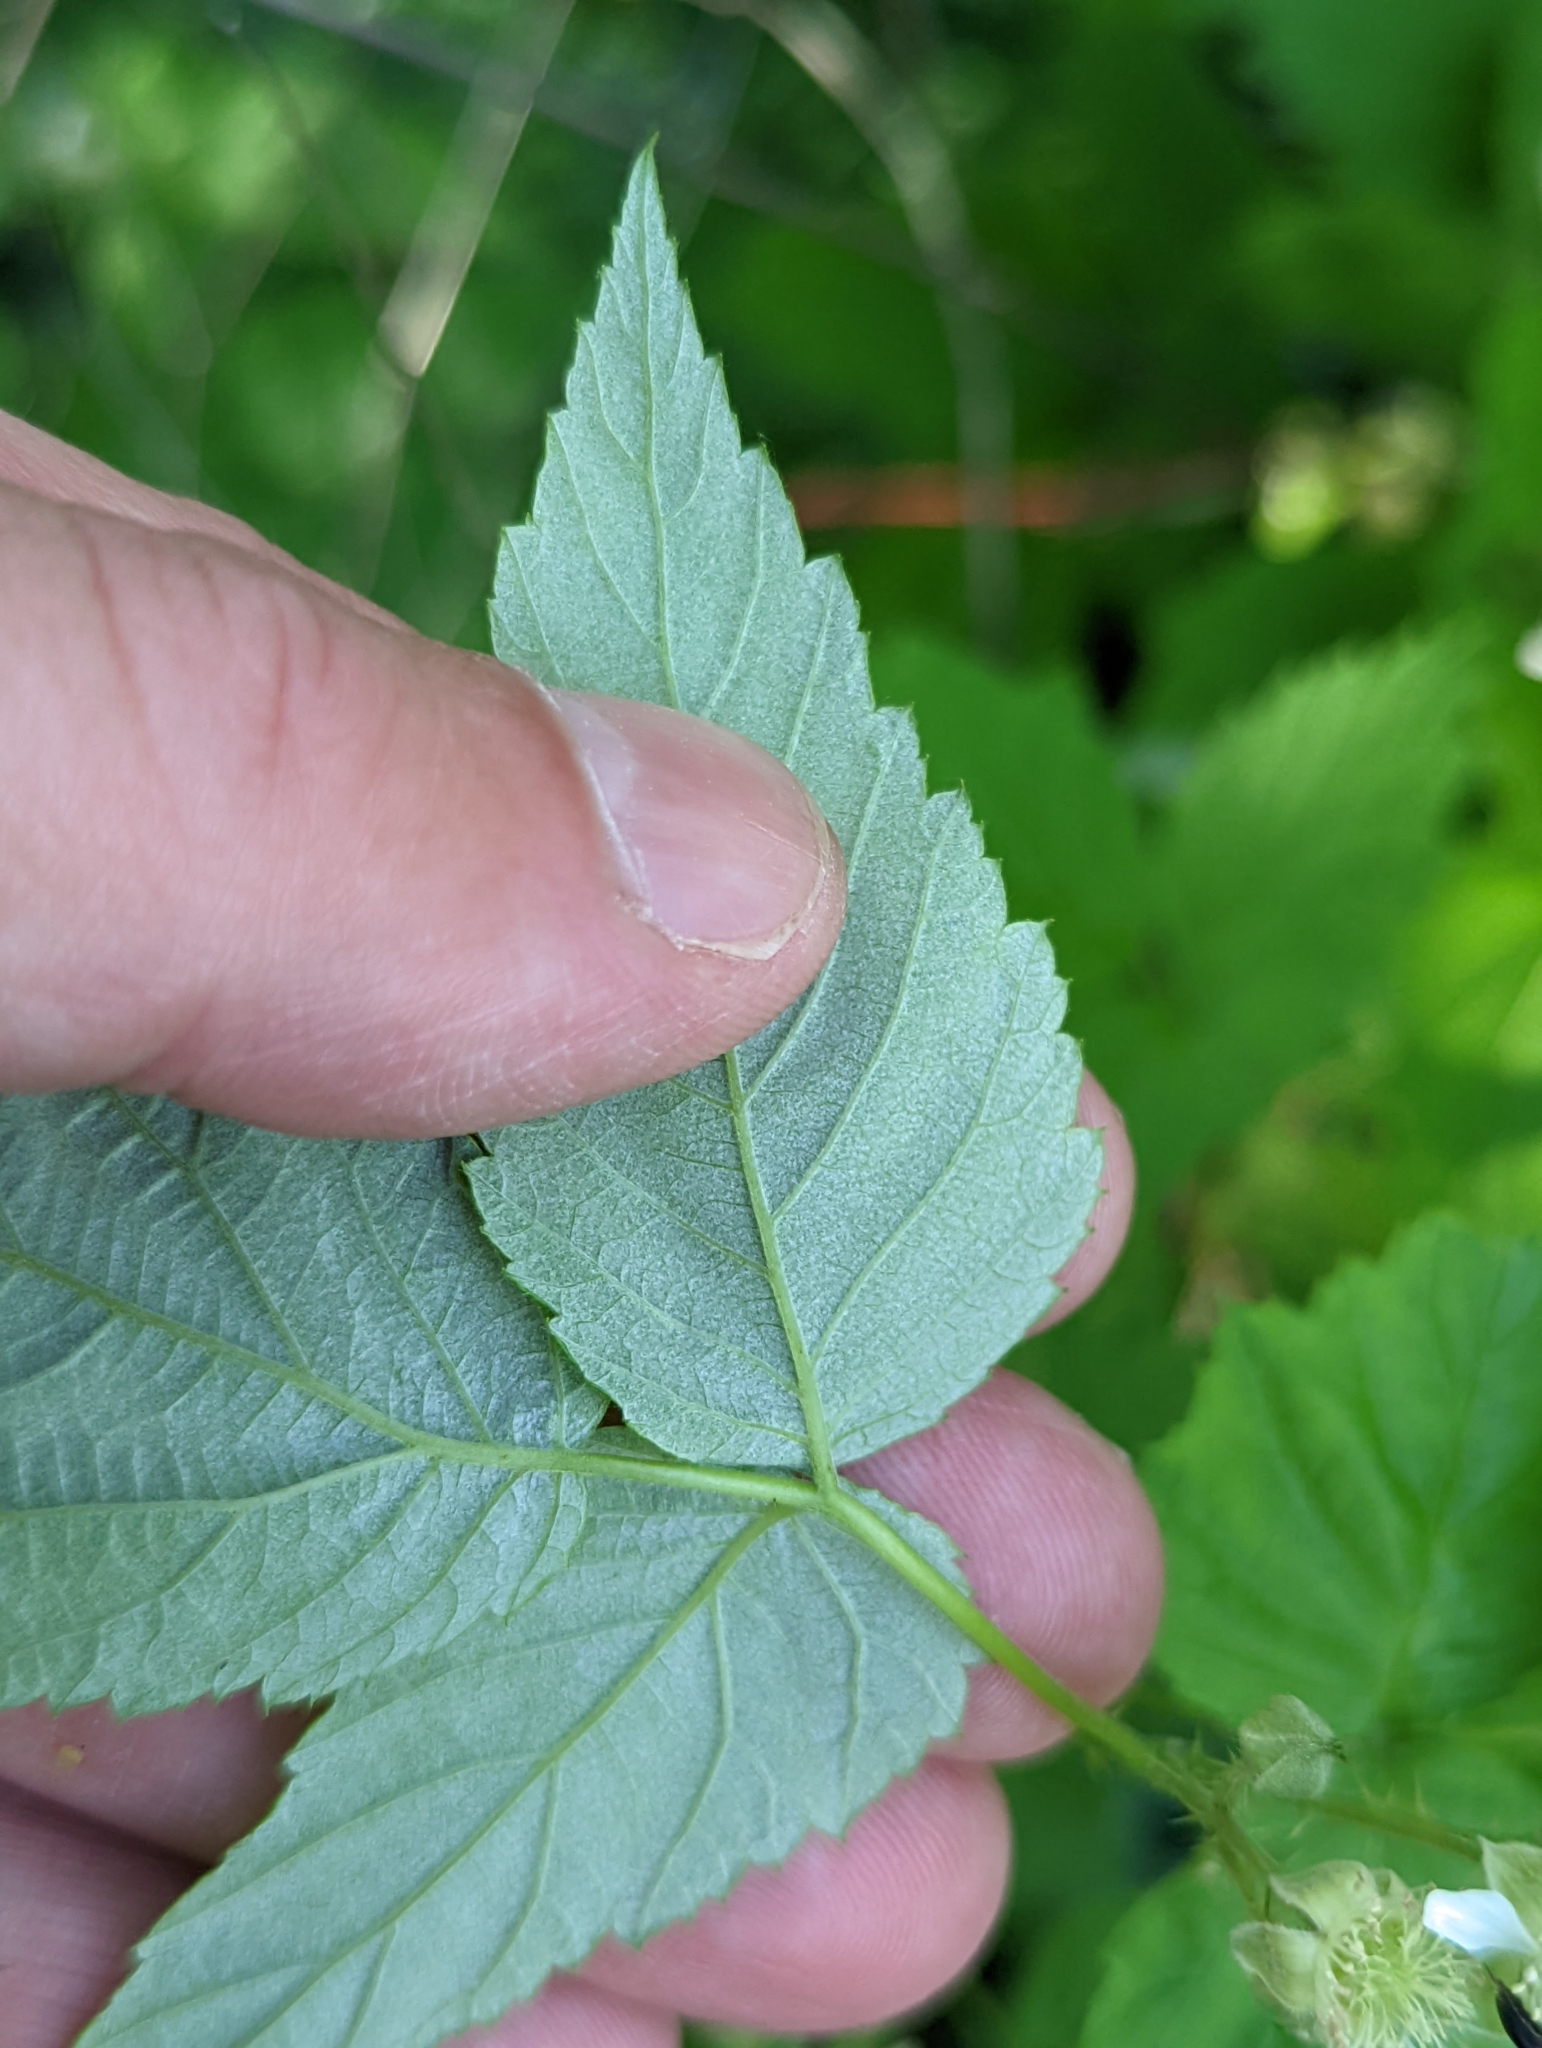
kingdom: Plantae
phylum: Tracheophyta
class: Magnoliopsida
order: Rosales
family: Rosaceae
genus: Rubus
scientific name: Rubus occidentalis
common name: Black raspberry
